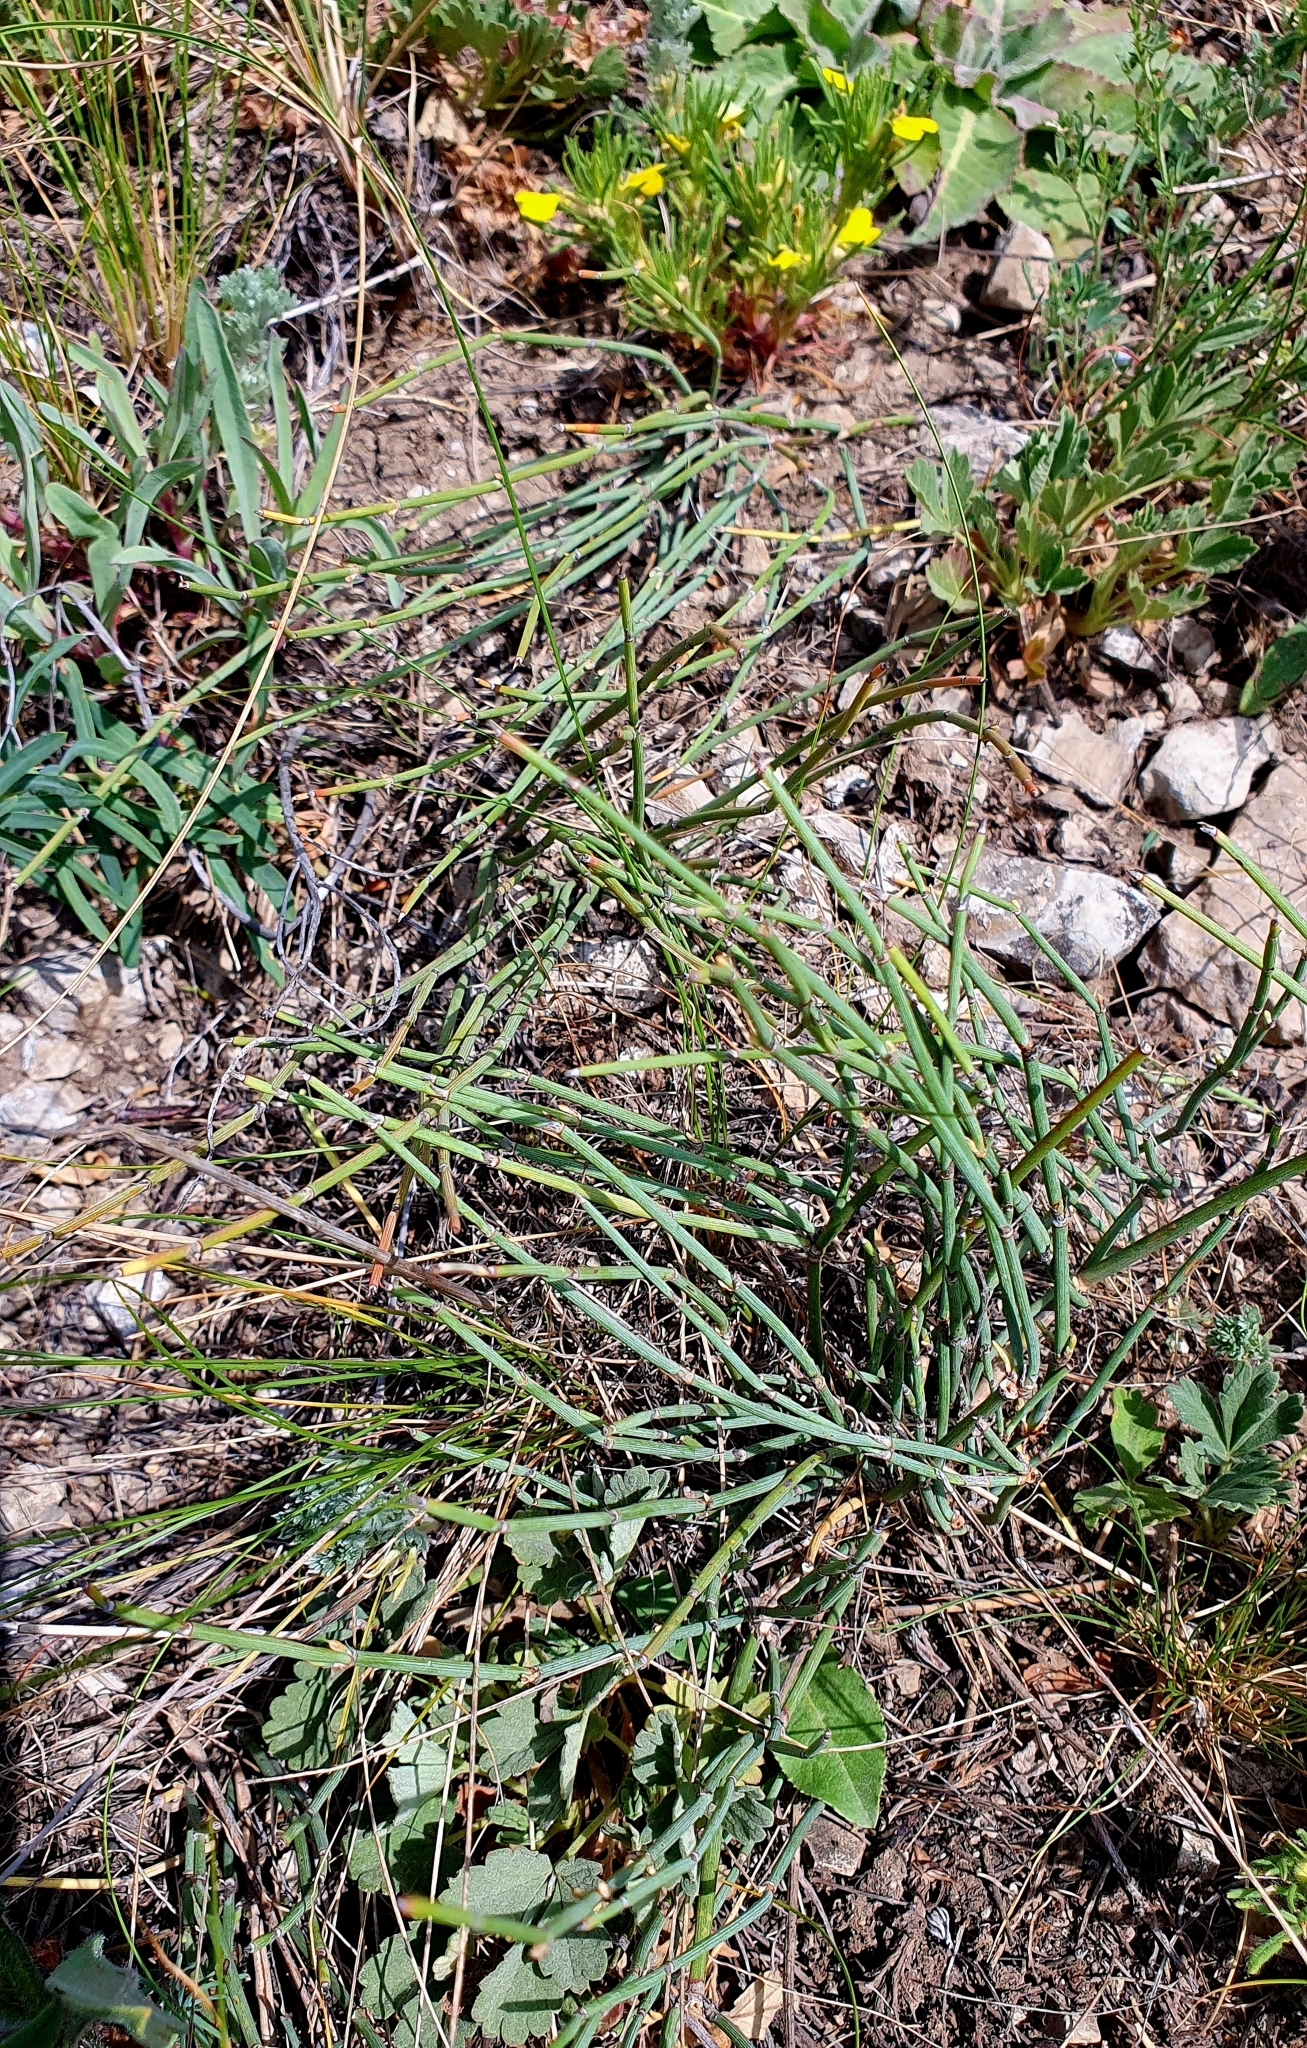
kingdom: Plantae
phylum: Tracheophyta
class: Gnetopsida
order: Ephedrales
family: Ephedraceae
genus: Ephedra
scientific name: Ephedra distachya
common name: Sea grape
